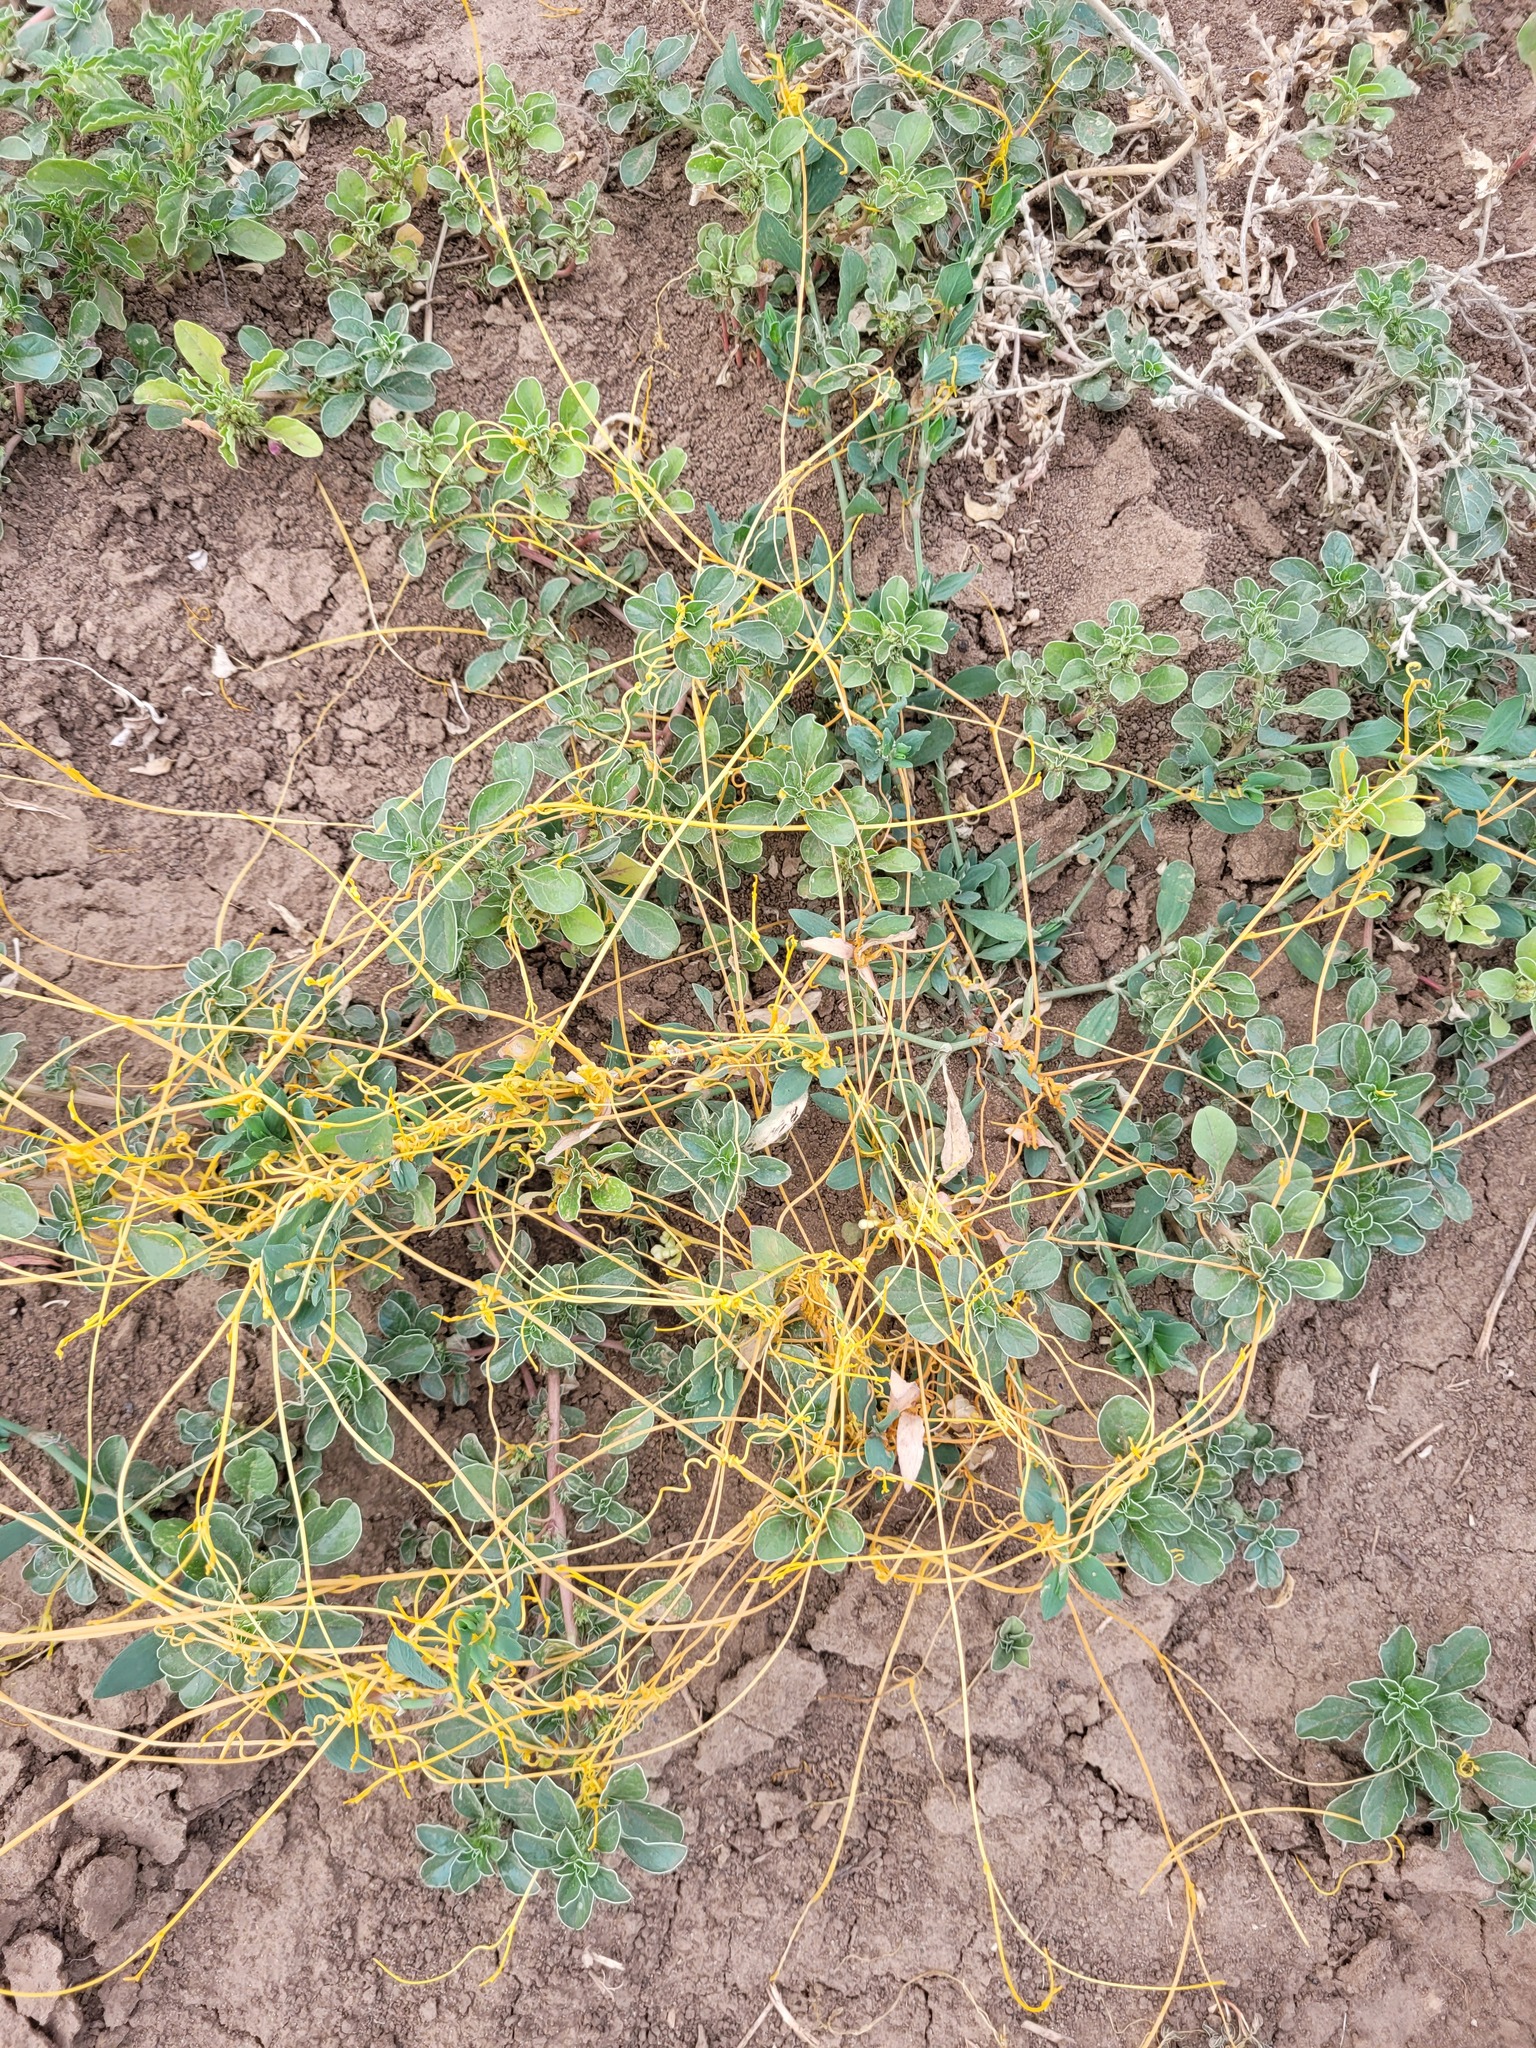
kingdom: Plantae
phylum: Tracheophyta
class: Magnoliopsida
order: Solanales
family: Convolvulaceae
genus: Cuscuta
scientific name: Cuscuta campestris
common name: Yellow dodder
